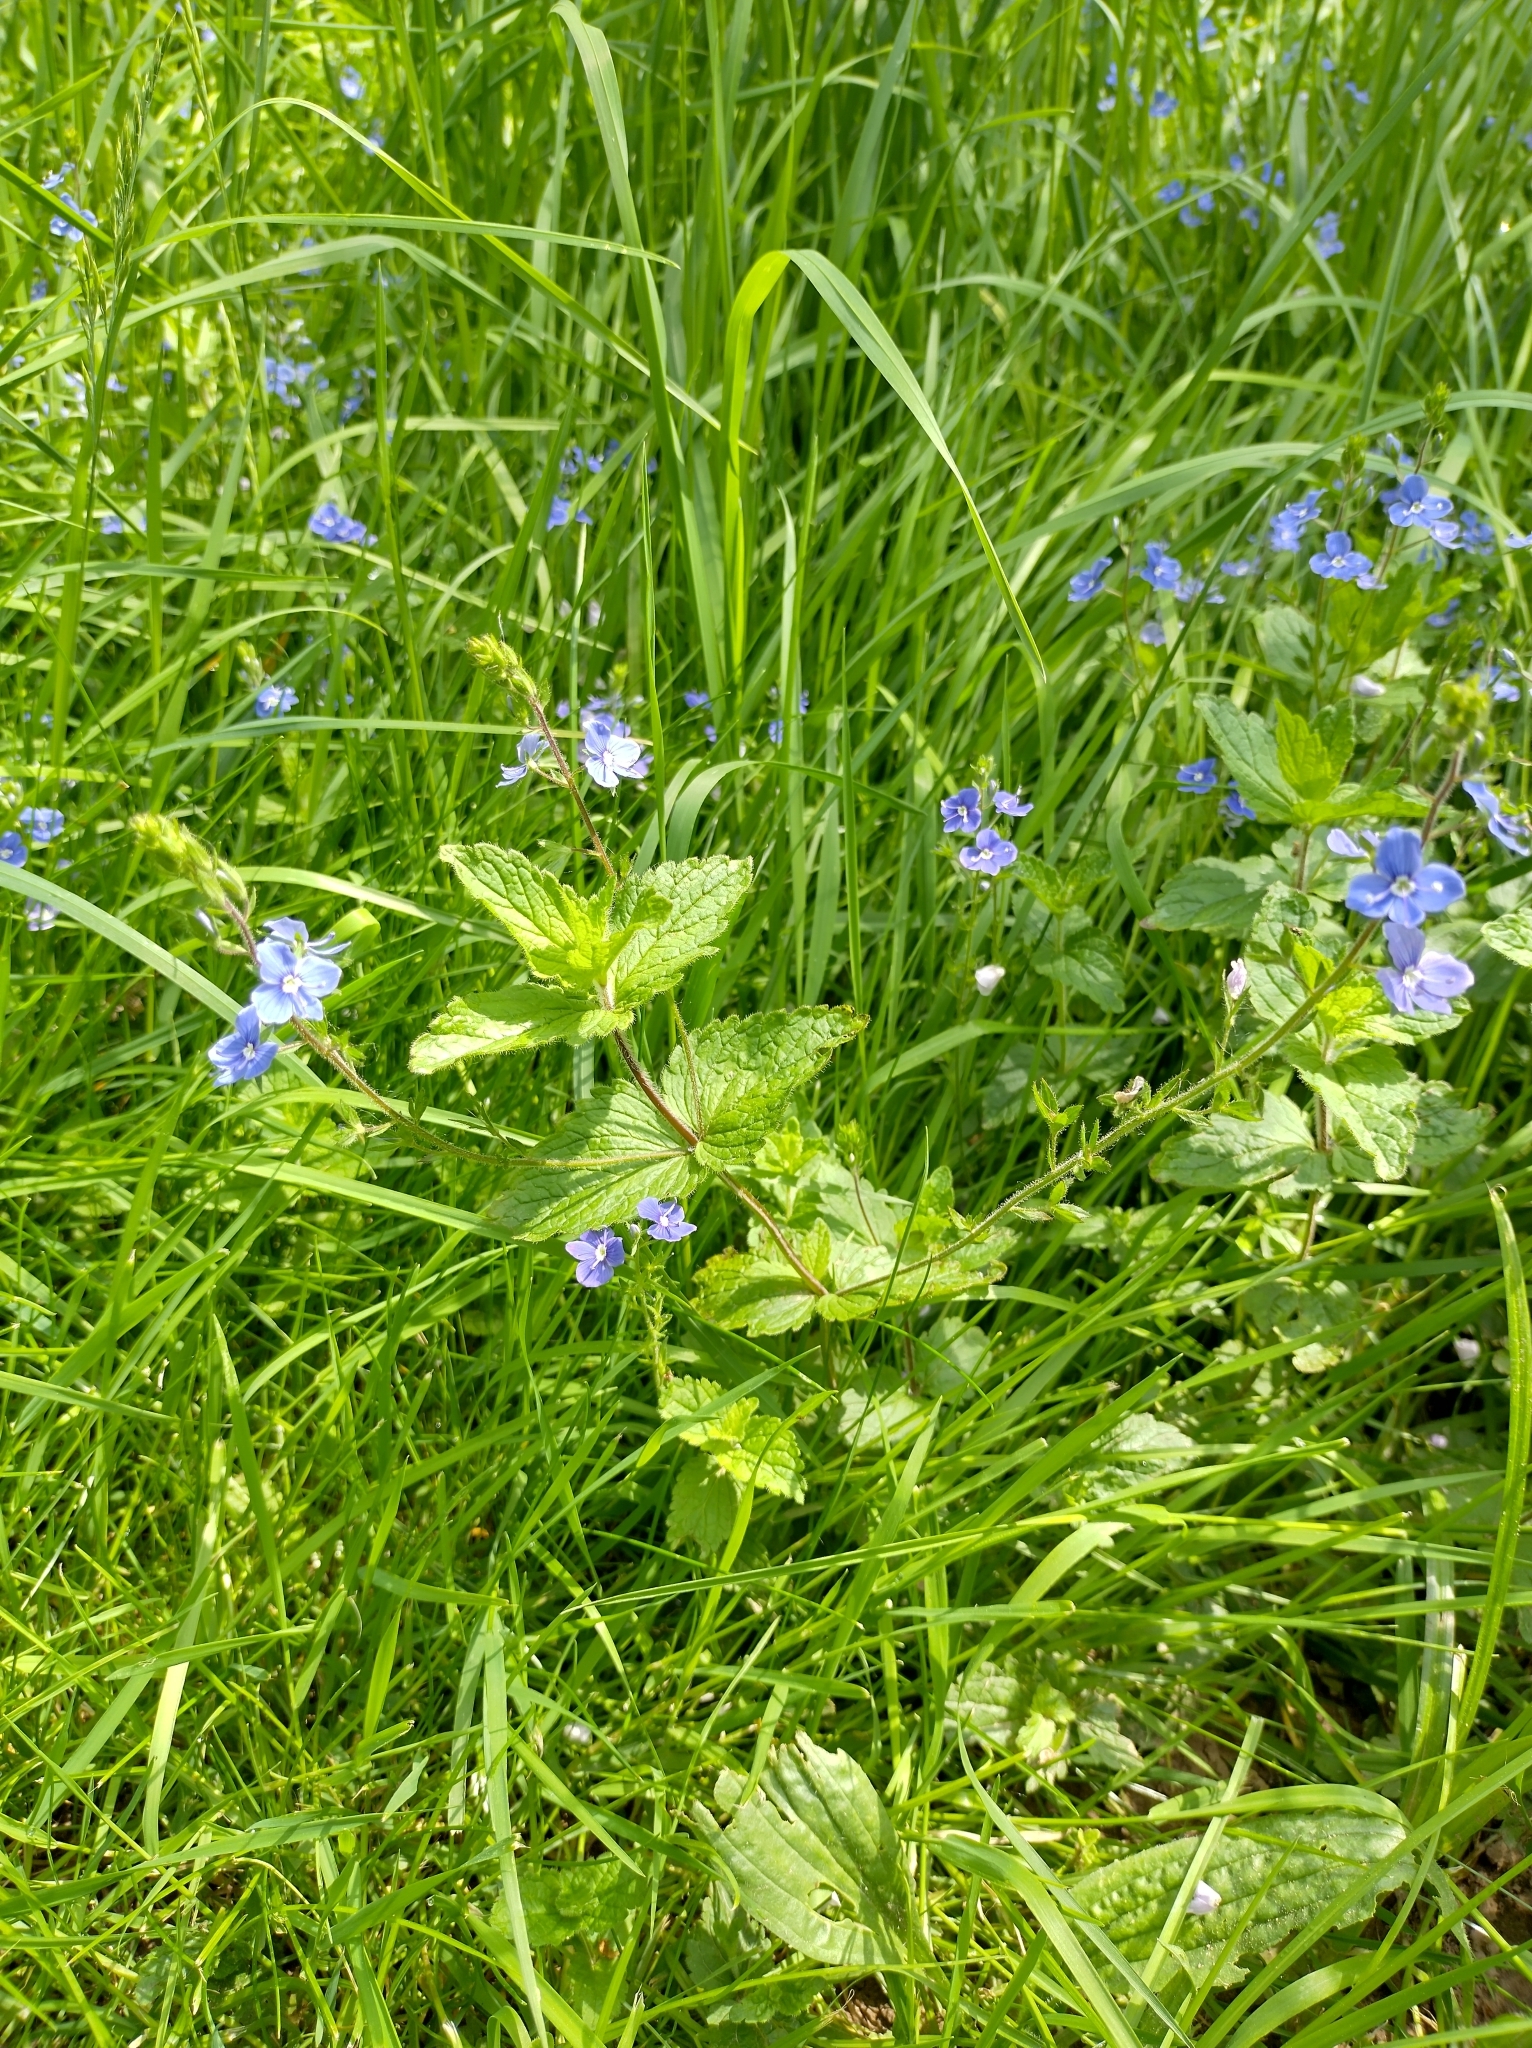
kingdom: Plantae
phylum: Tracheophyta
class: Magnoliopsida
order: Lamiales
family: Plantaginaceae
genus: Veronica
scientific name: Veronica chamaedrys
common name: Germander speedwell
